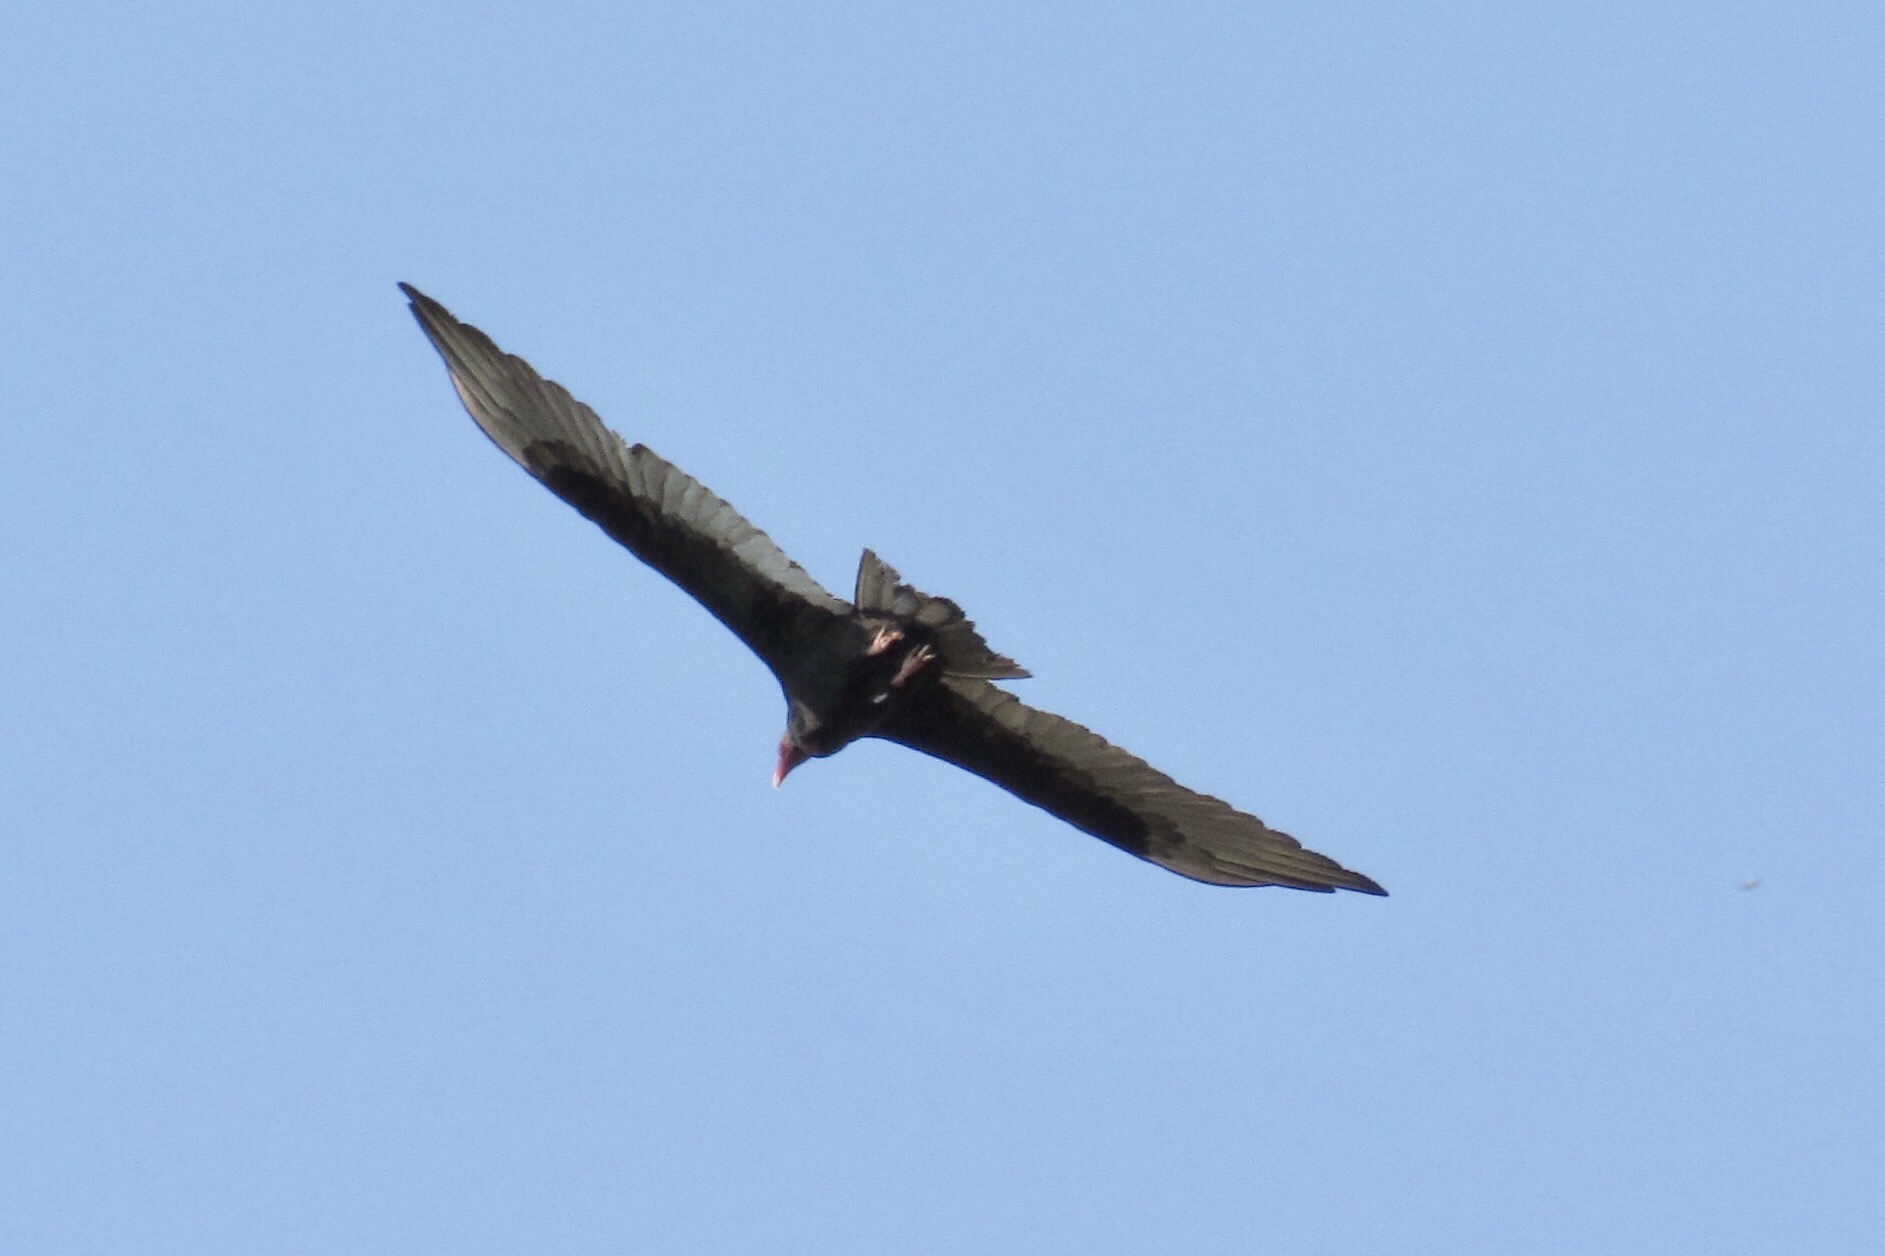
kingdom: Animalia
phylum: Chordata
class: Aves
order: Accipitriformes
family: Cathartidae
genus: Cathartes
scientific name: Cathartes aura
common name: Turkey vulture
